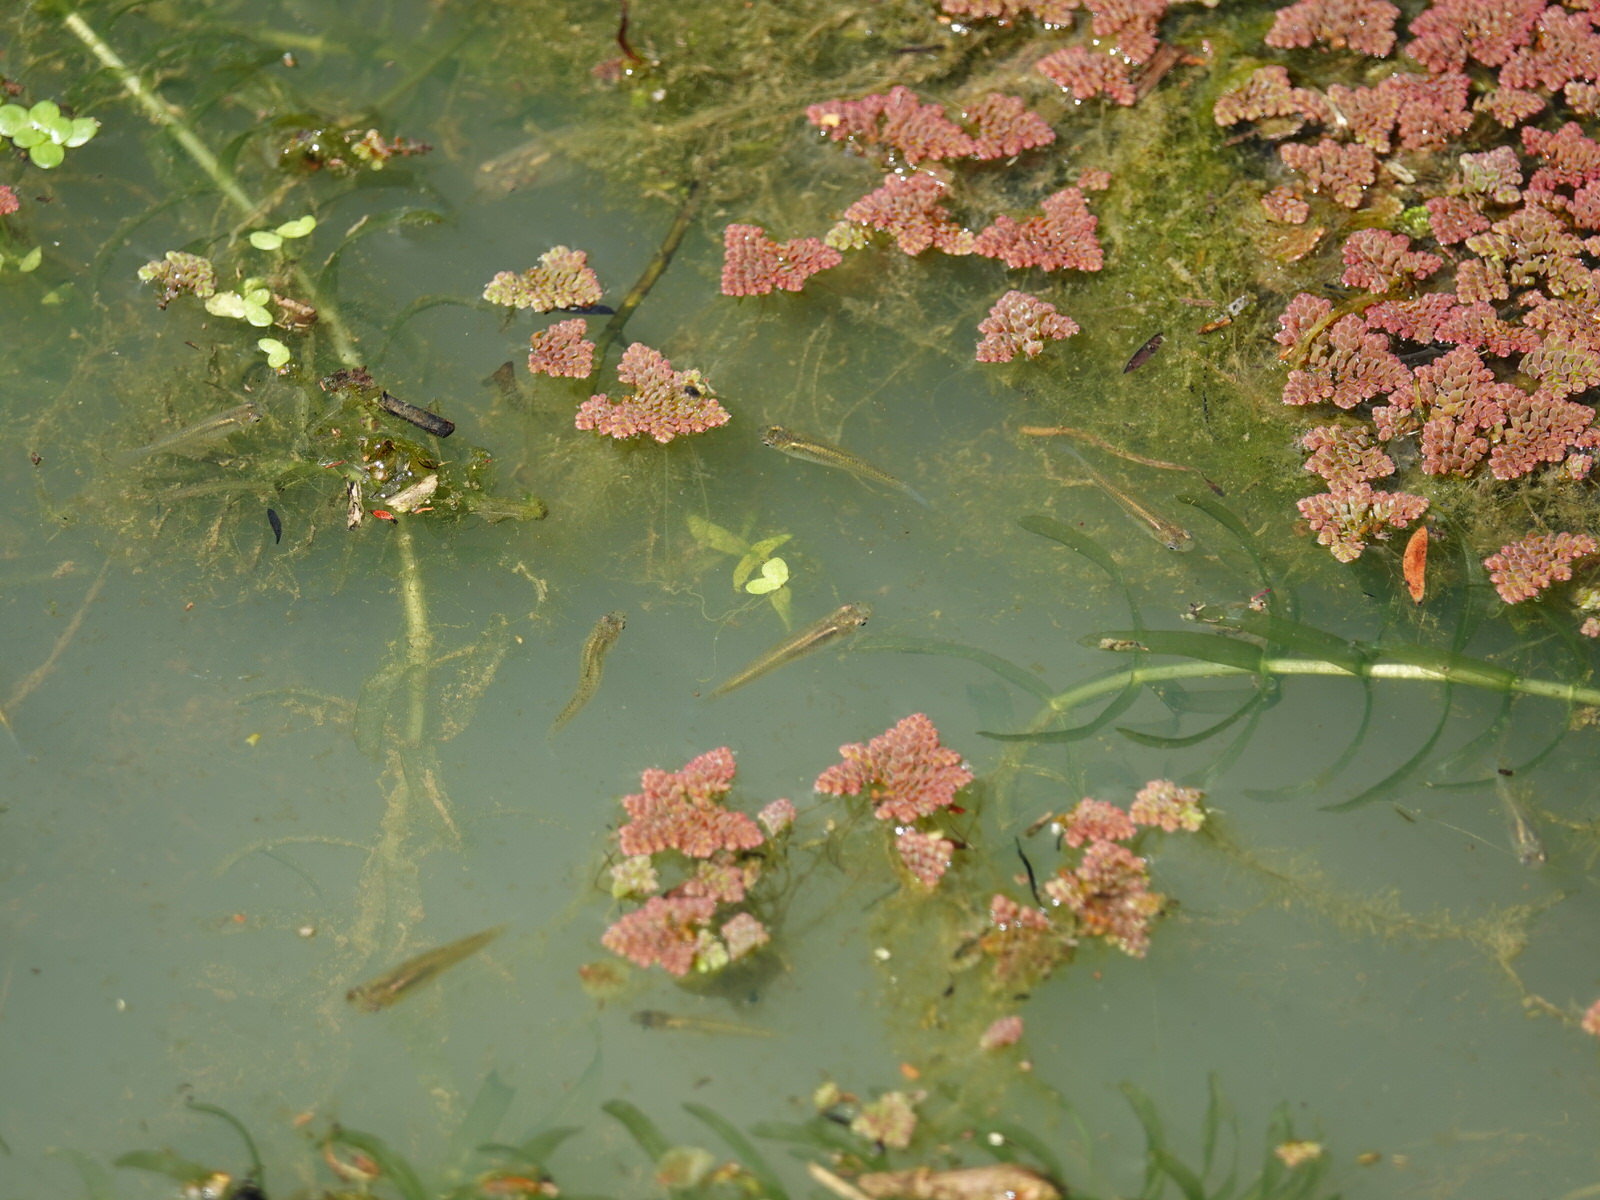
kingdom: Animalia
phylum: Chordata
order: Cyprinodontiformes
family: Poeciliidae
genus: Gambusia
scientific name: Gambusia affinis
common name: Mosquitofish
